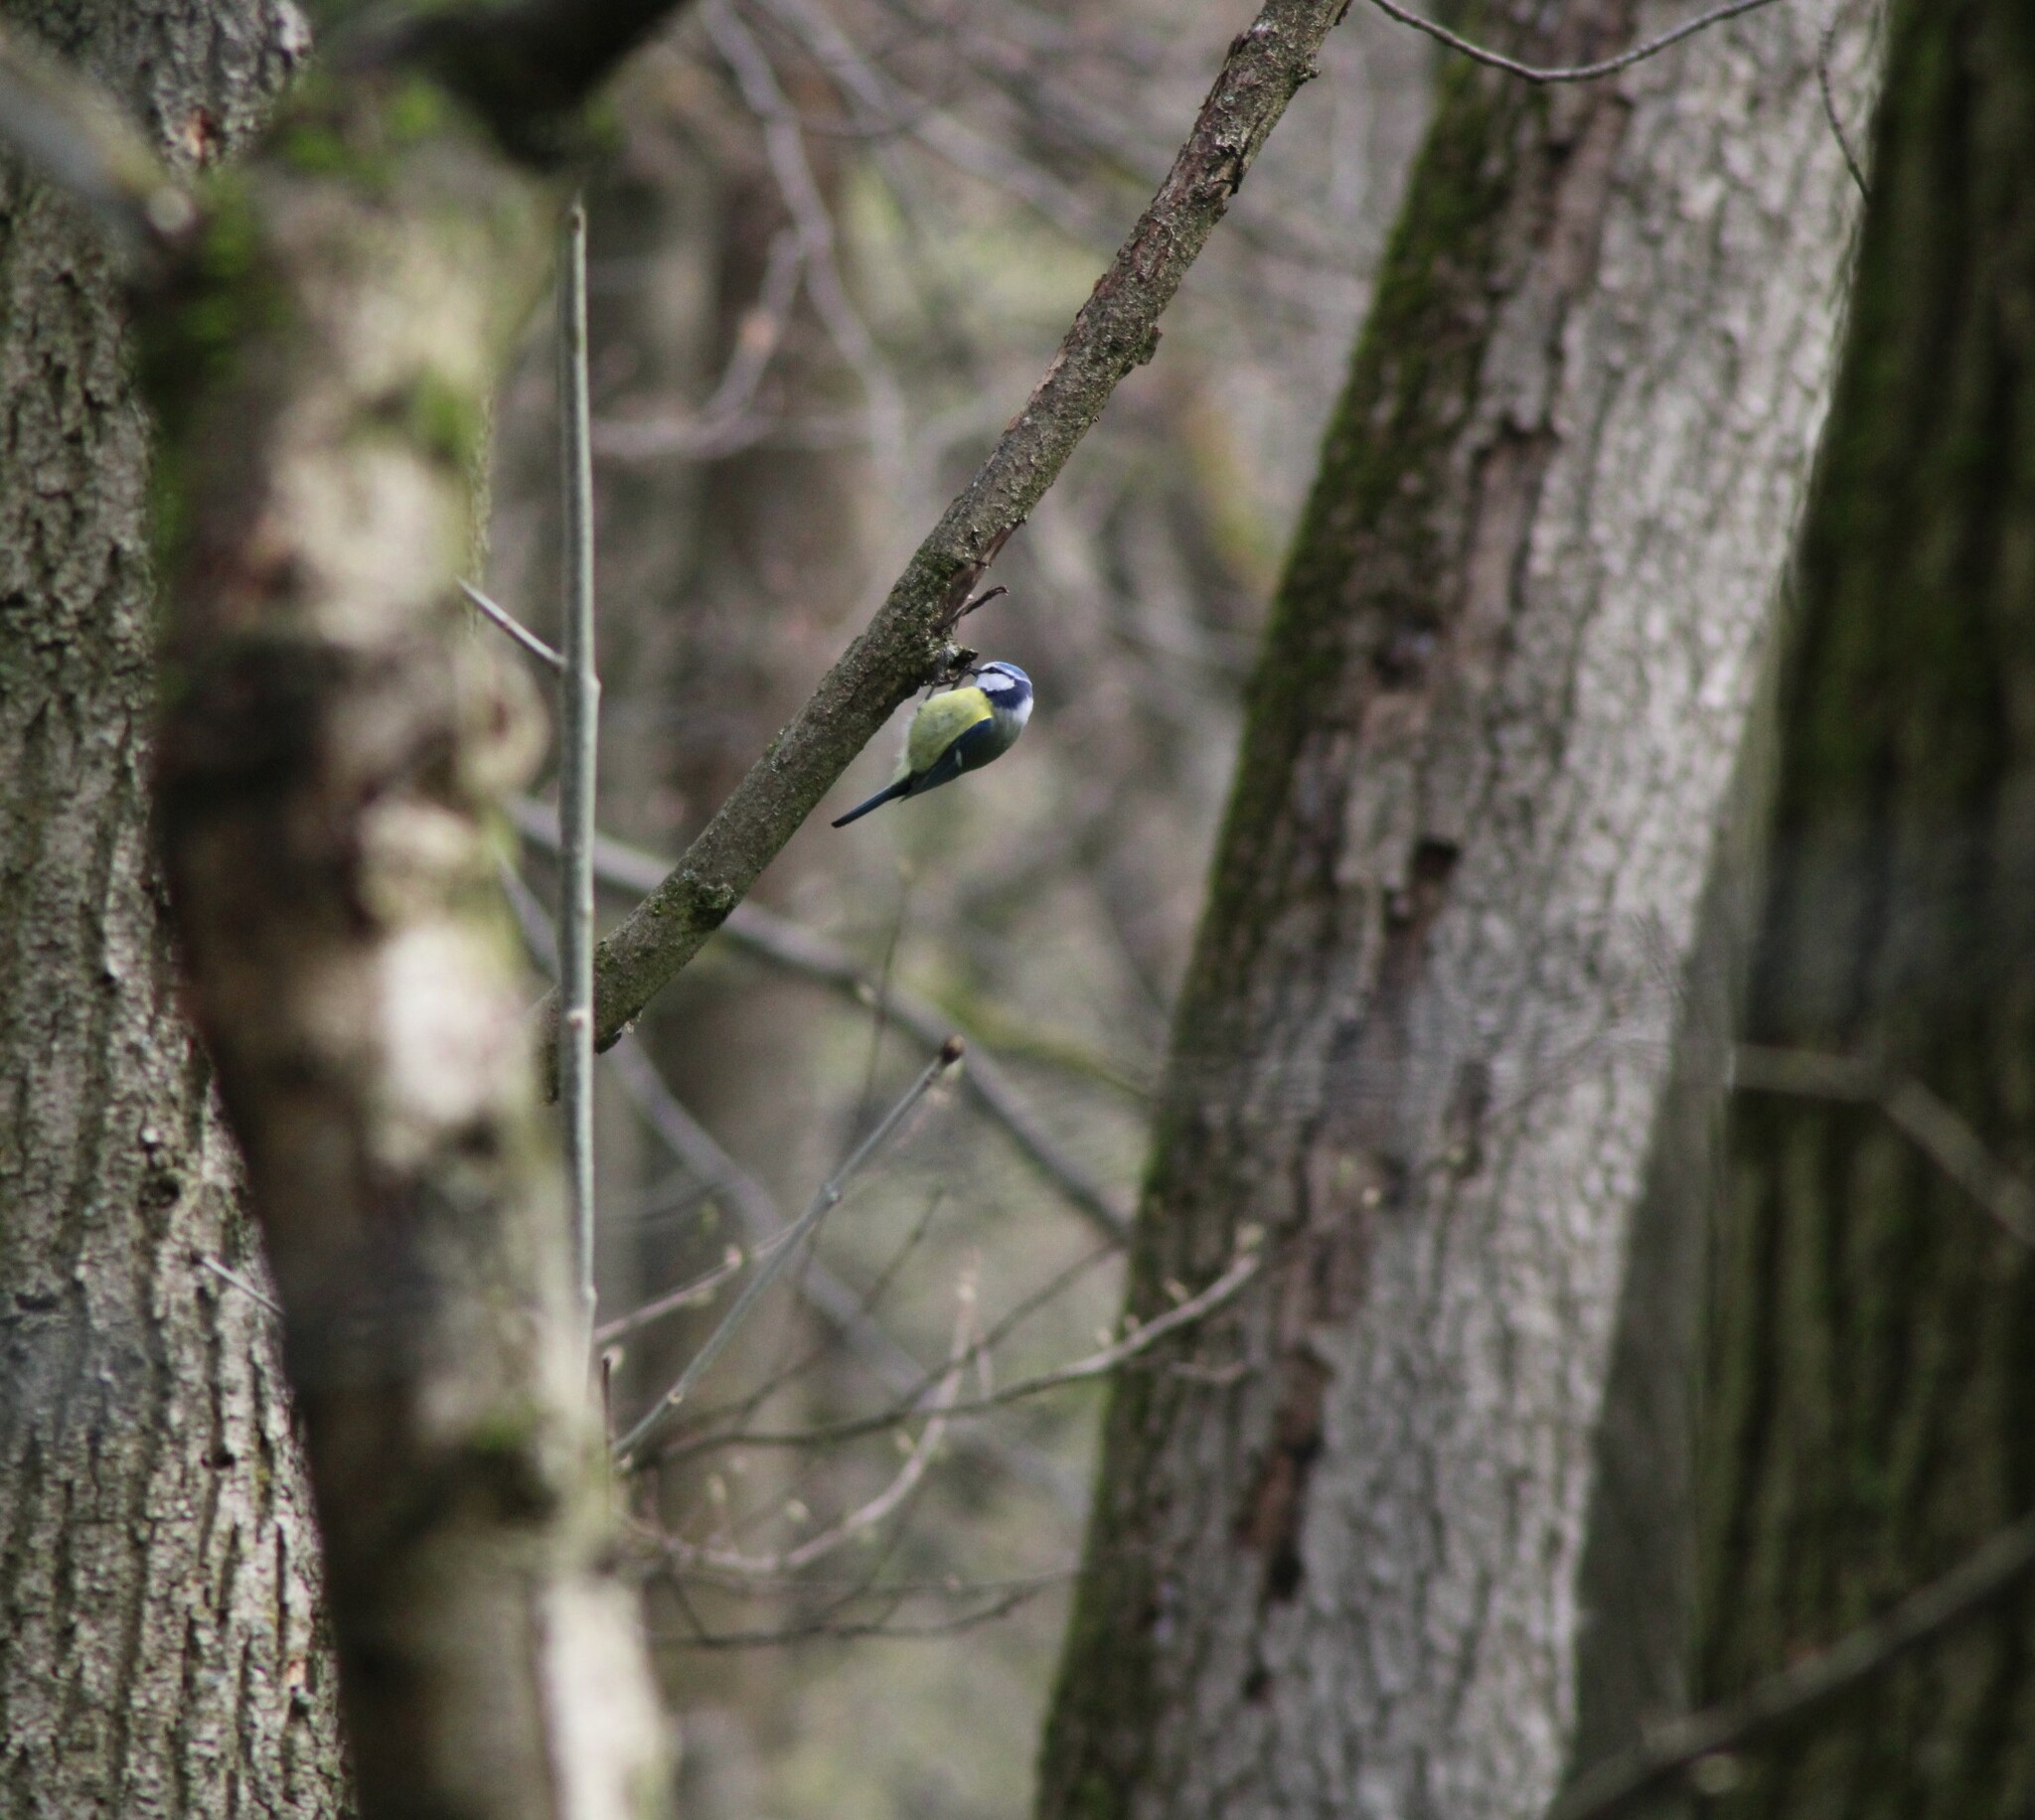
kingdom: Animalia
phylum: Chordata
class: Aves
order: Passeriformes
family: Paridae
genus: Cyanistes
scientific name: Cyanistes caeruleus
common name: Eurasian blue tit
